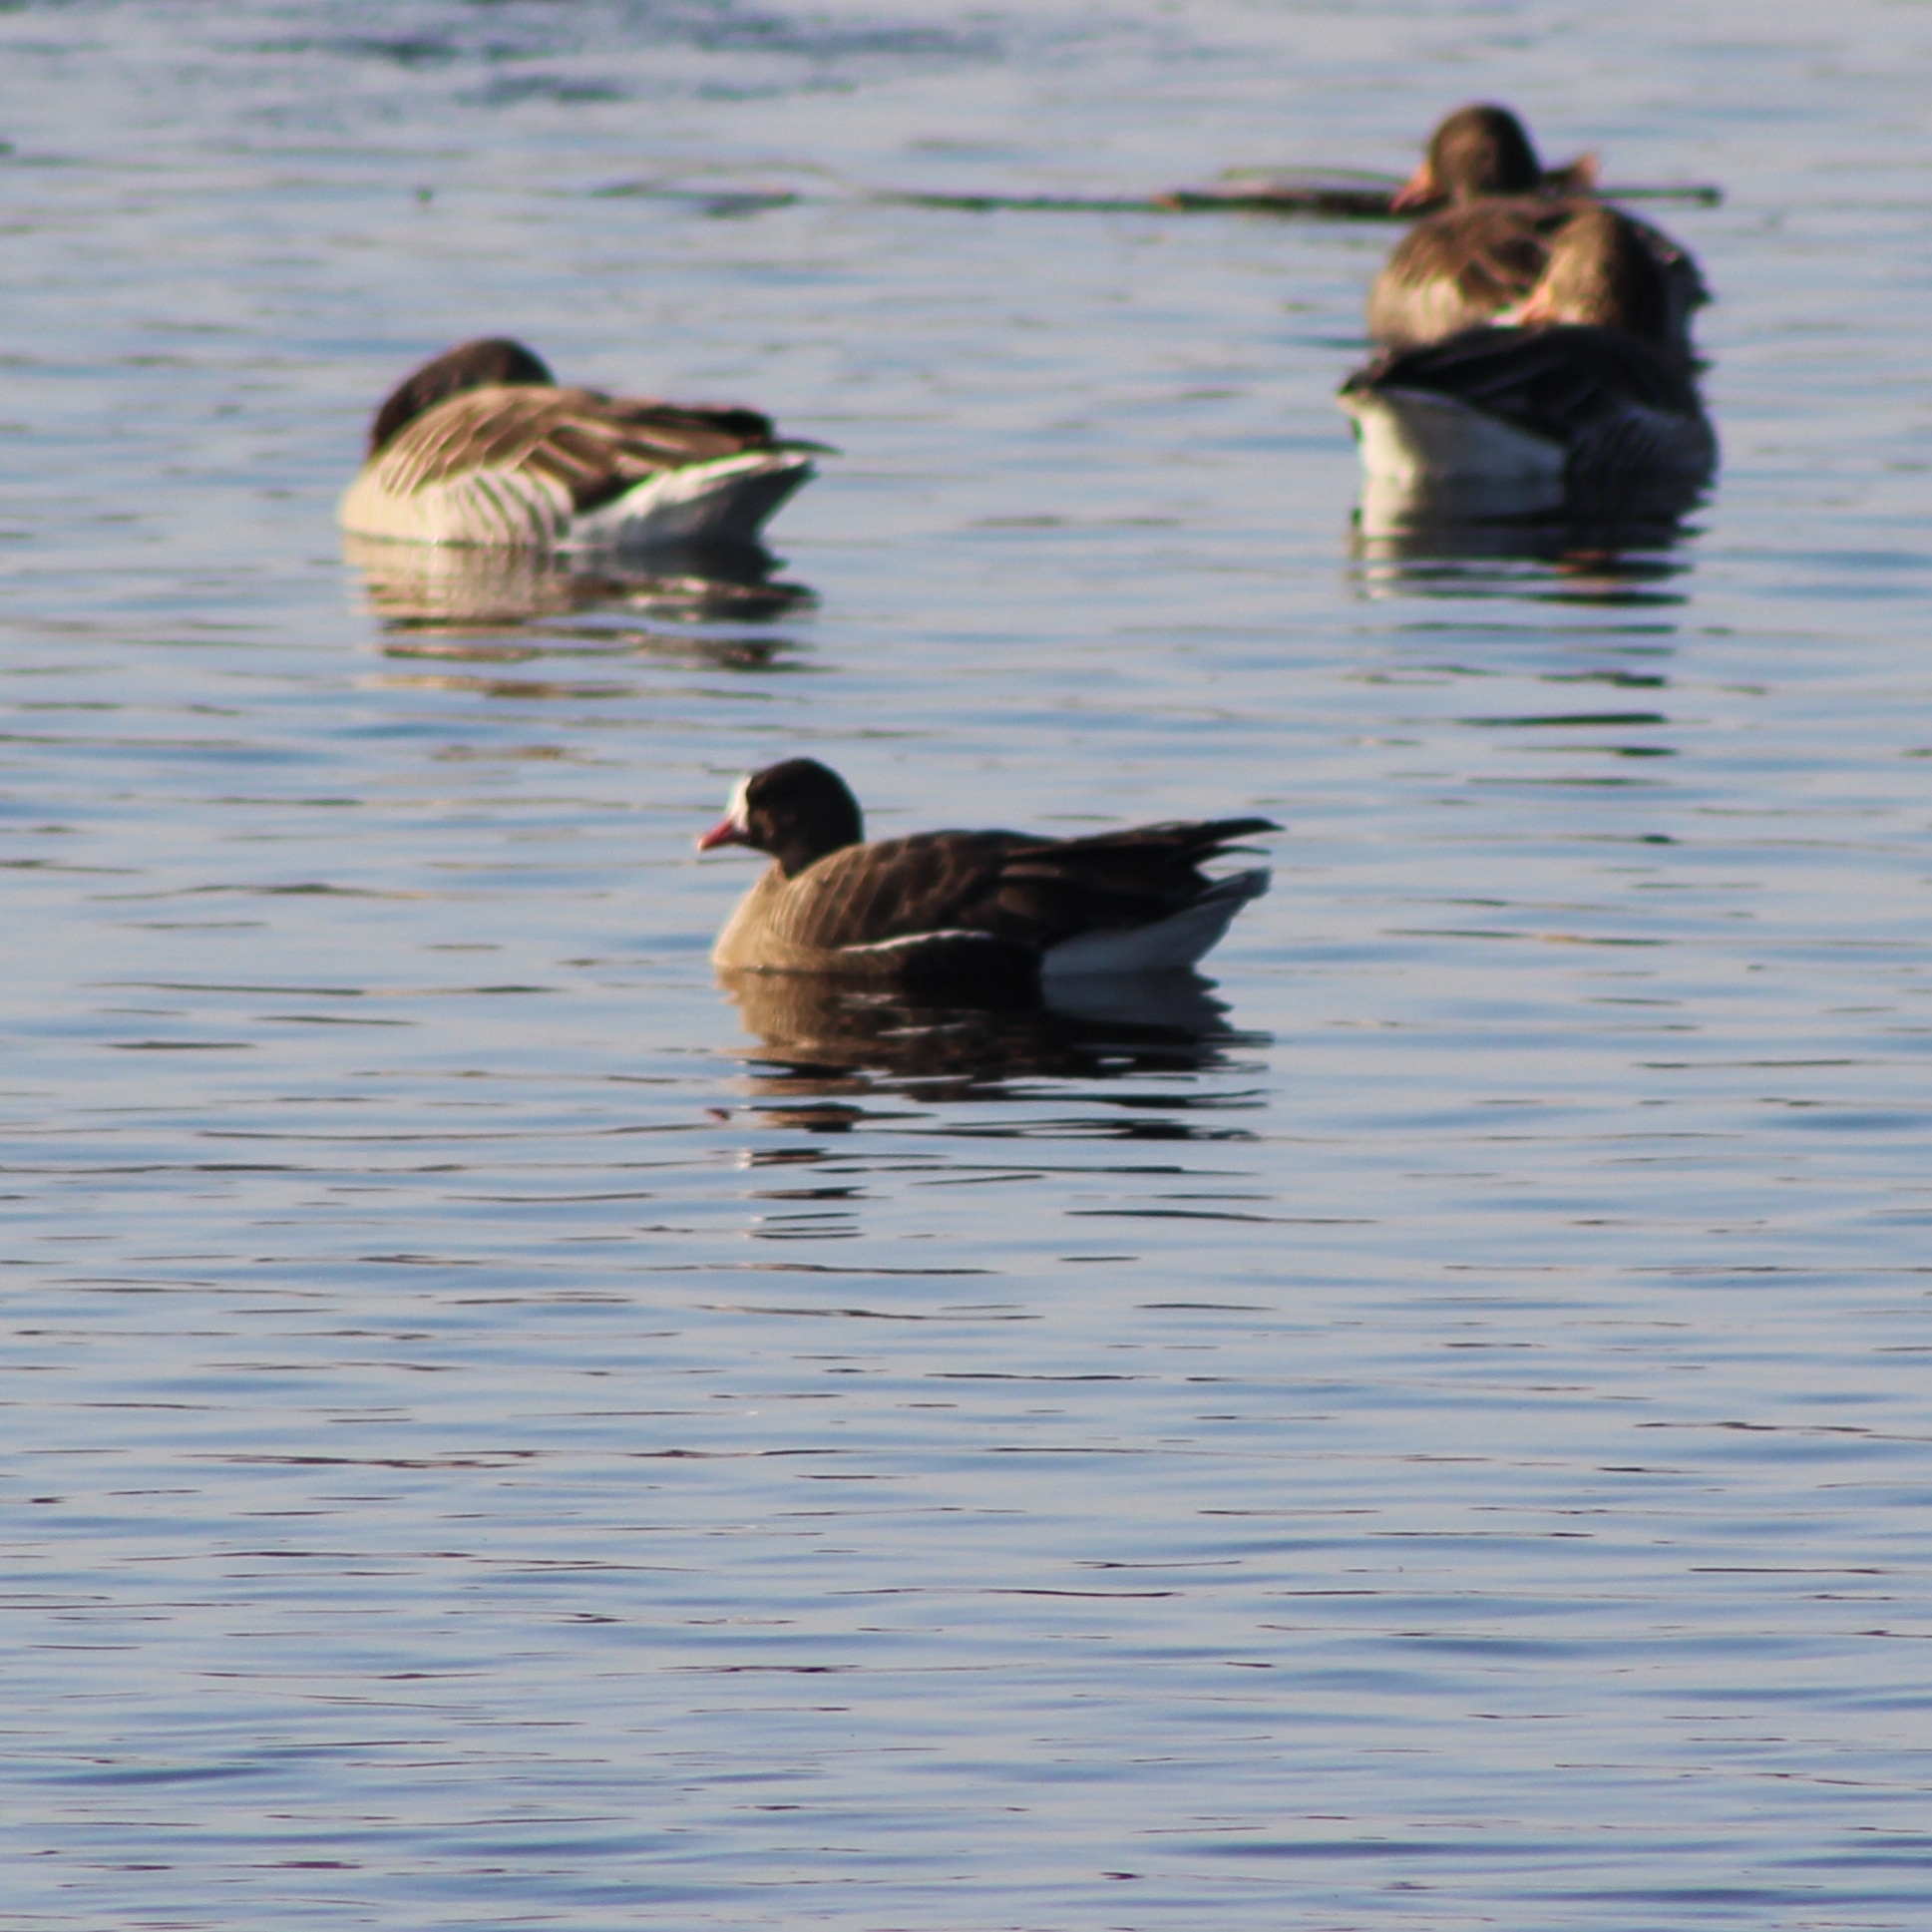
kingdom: Animalia
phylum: Chordata
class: Aves
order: Anseriformes
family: Anatidae
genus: Anser
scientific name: Anser erythropus
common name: Lesser white-fronted goose
